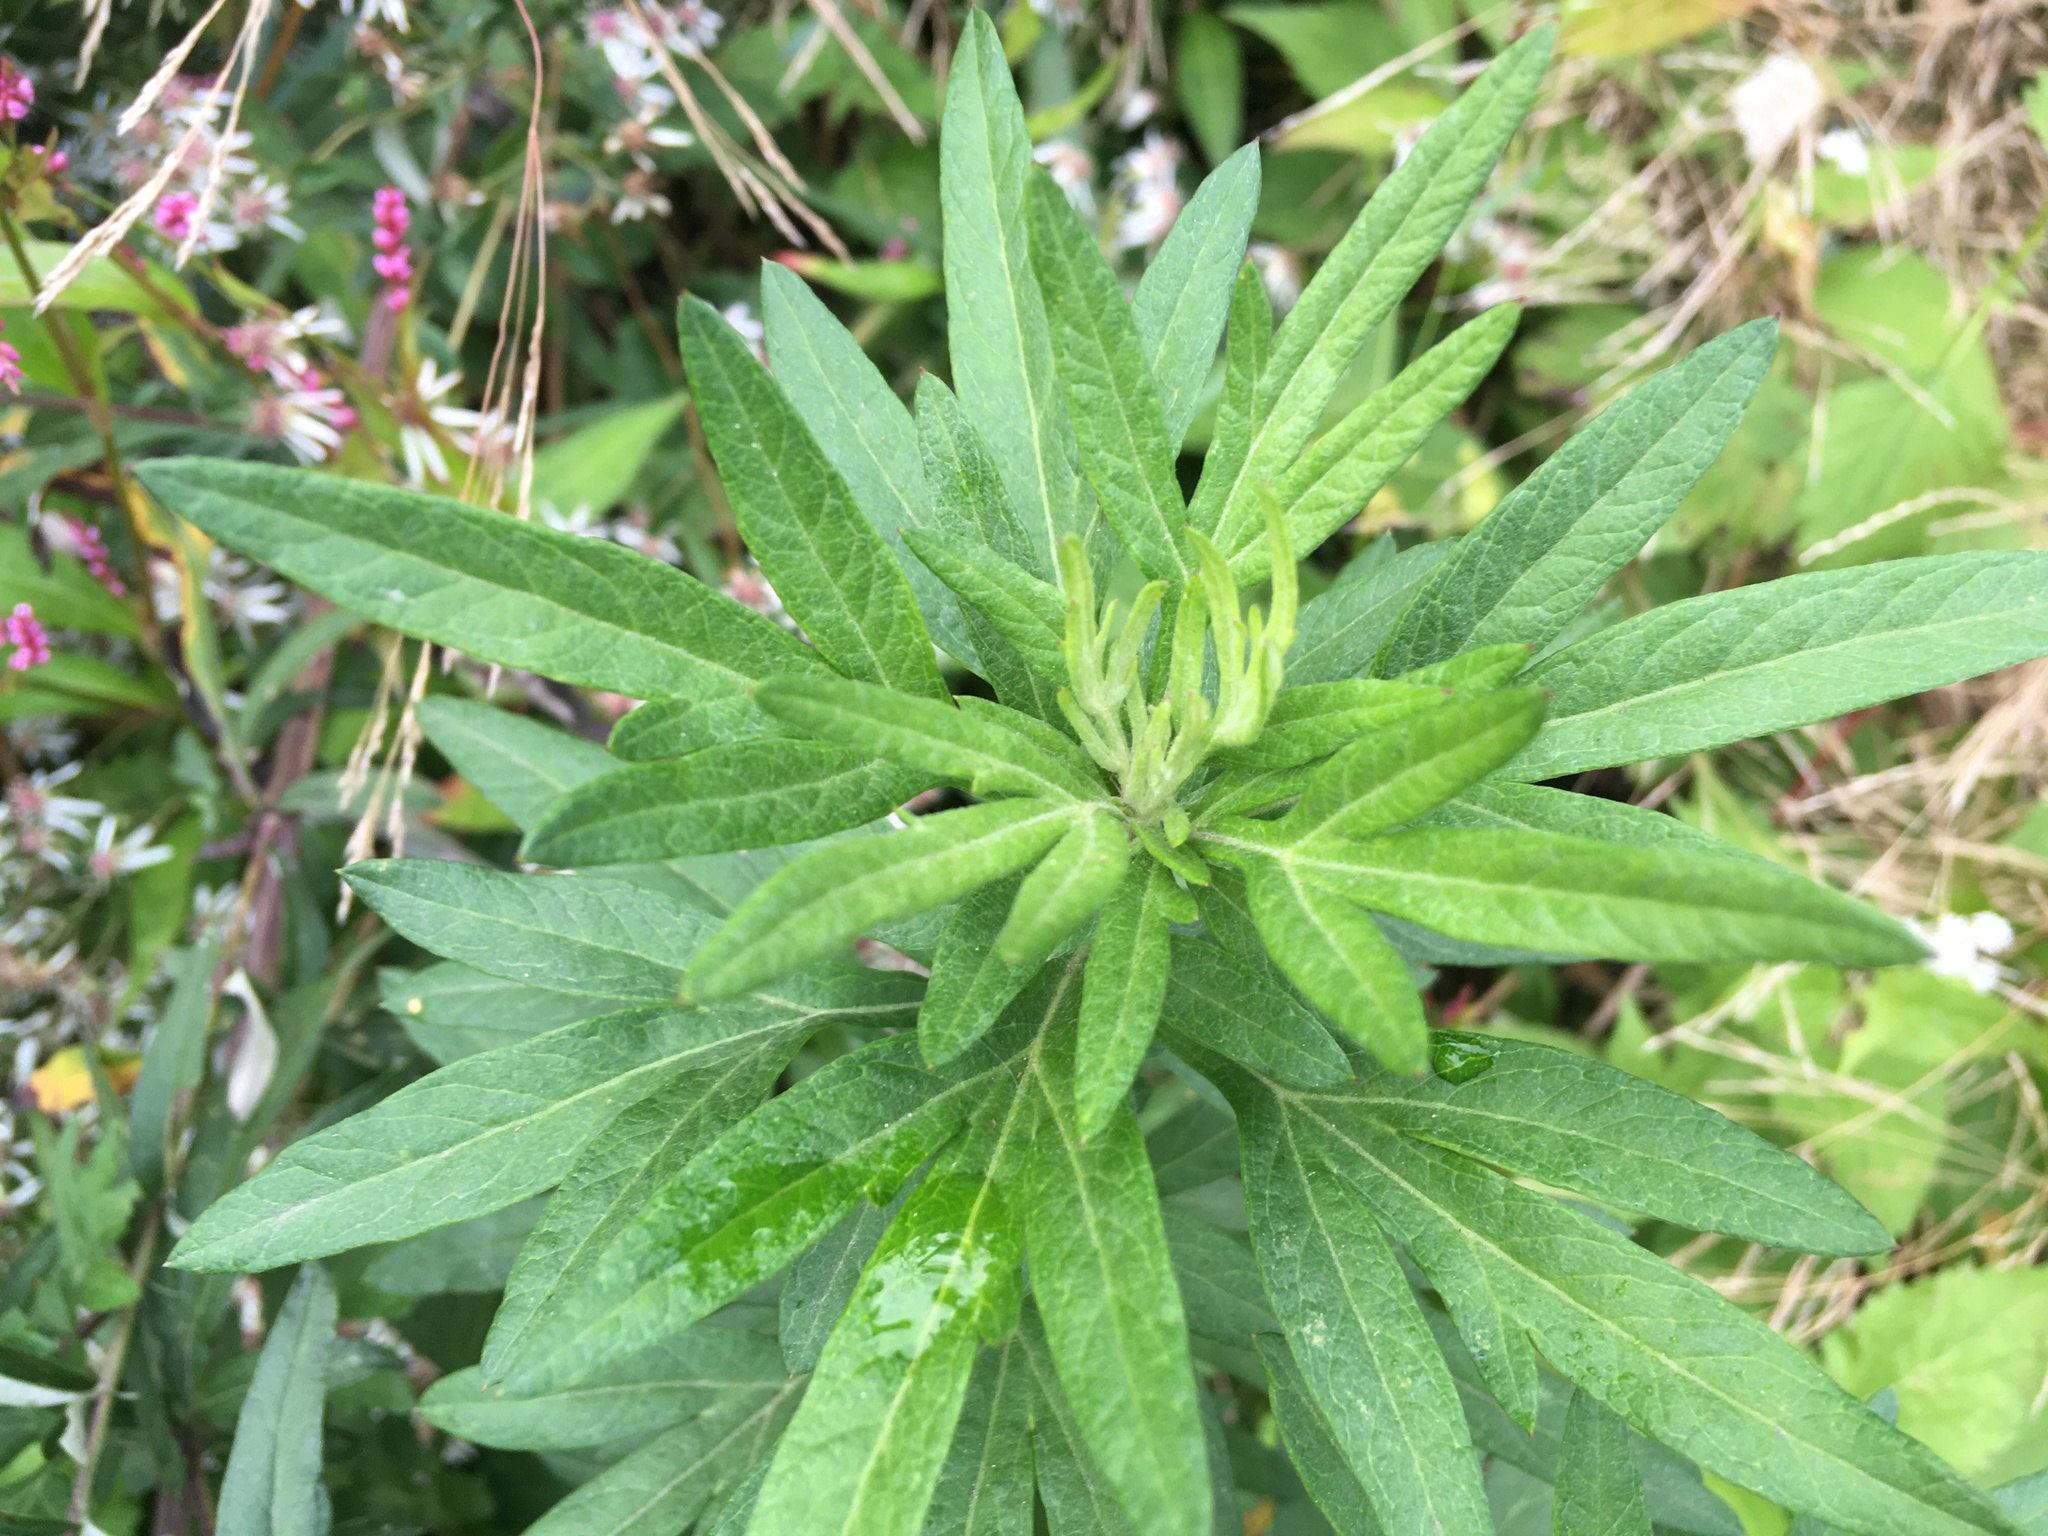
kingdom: Plantae
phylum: Tracheophyta
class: Magnoliopsida
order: Asterales
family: Asteraceae
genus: Artemisia
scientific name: Artemisia vulgaris
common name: Mugwort
